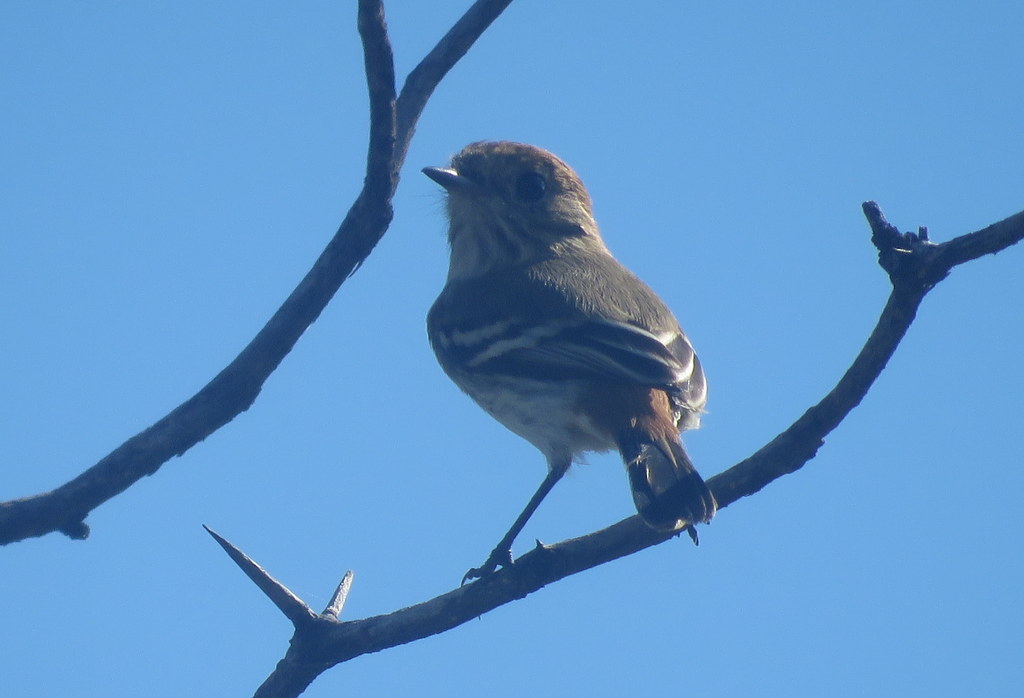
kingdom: Animalia
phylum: Chordata
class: Aves
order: Passeriformes
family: Tyrannidae
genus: Knipolegus
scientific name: Knipolegus striaticeps
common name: Cinereous tyrant
